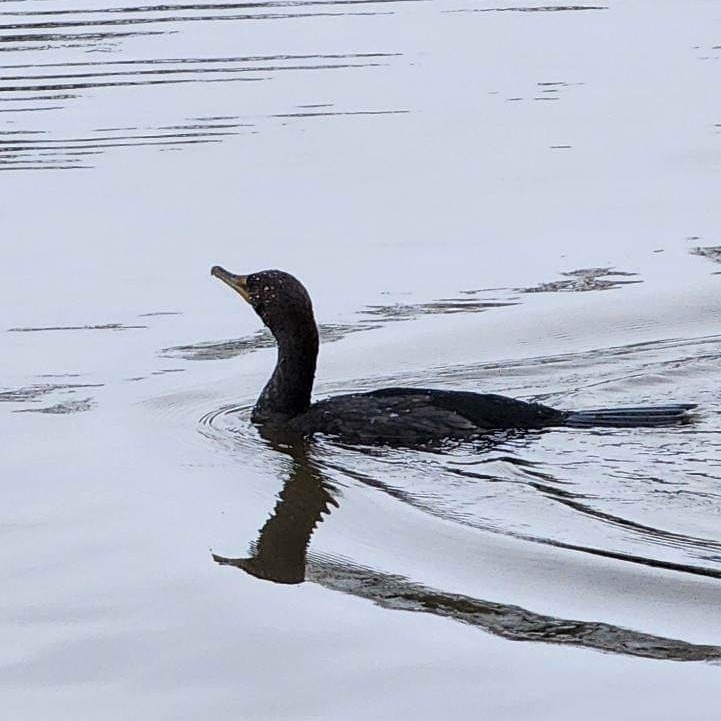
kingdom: Animalia
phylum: Chordata
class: Aves
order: Suliformes
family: Phalacrocoracidae
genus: Phalacrocorax
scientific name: Phalacrocorax auritus
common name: Double-crested cormorant
